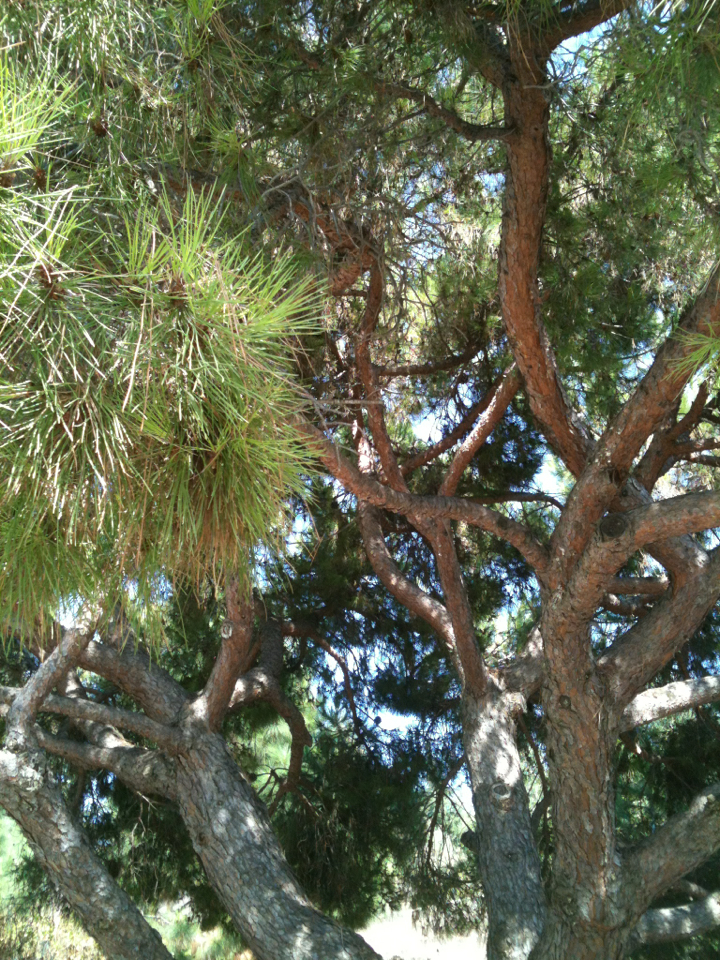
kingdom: Plantae
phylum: Tracheophyta
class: Pinopsida
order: Pinales
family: Pinaceae
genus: Pinus
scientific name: Pinus pinea
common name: Italian stone pine
